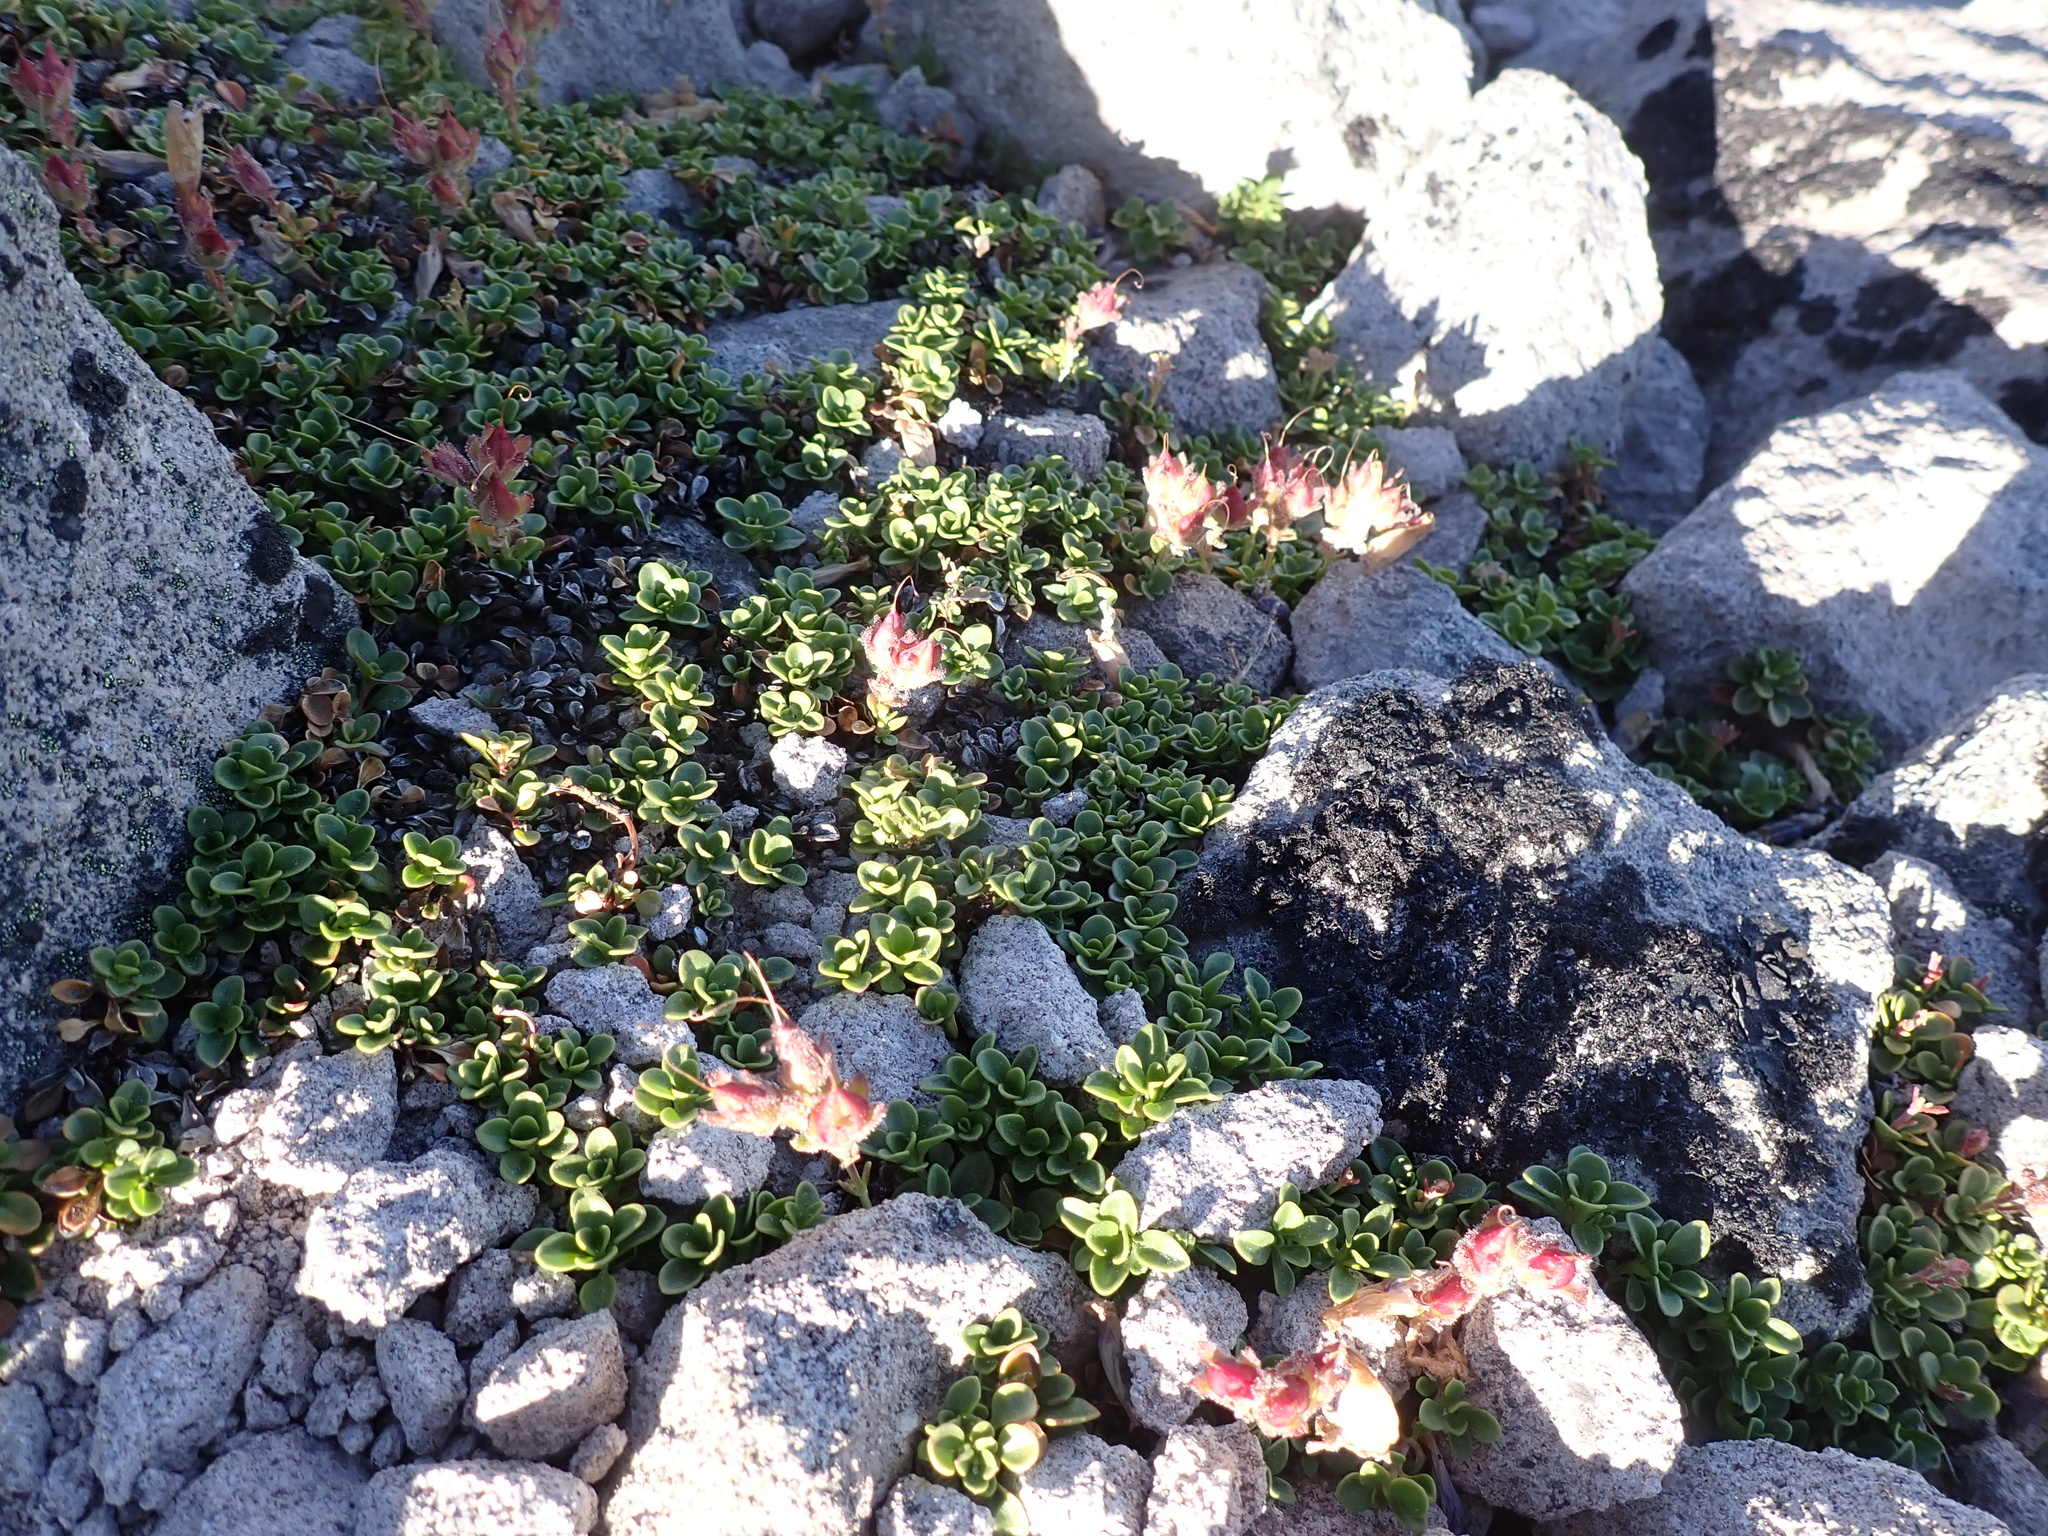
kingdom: Plantae
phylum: Tracheophyta
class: Magnoliopsida
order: Lamiales
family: Plantaginaceae
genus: Penstemon
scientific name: Penstemon davidsonii
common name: Davidson's penstemon
